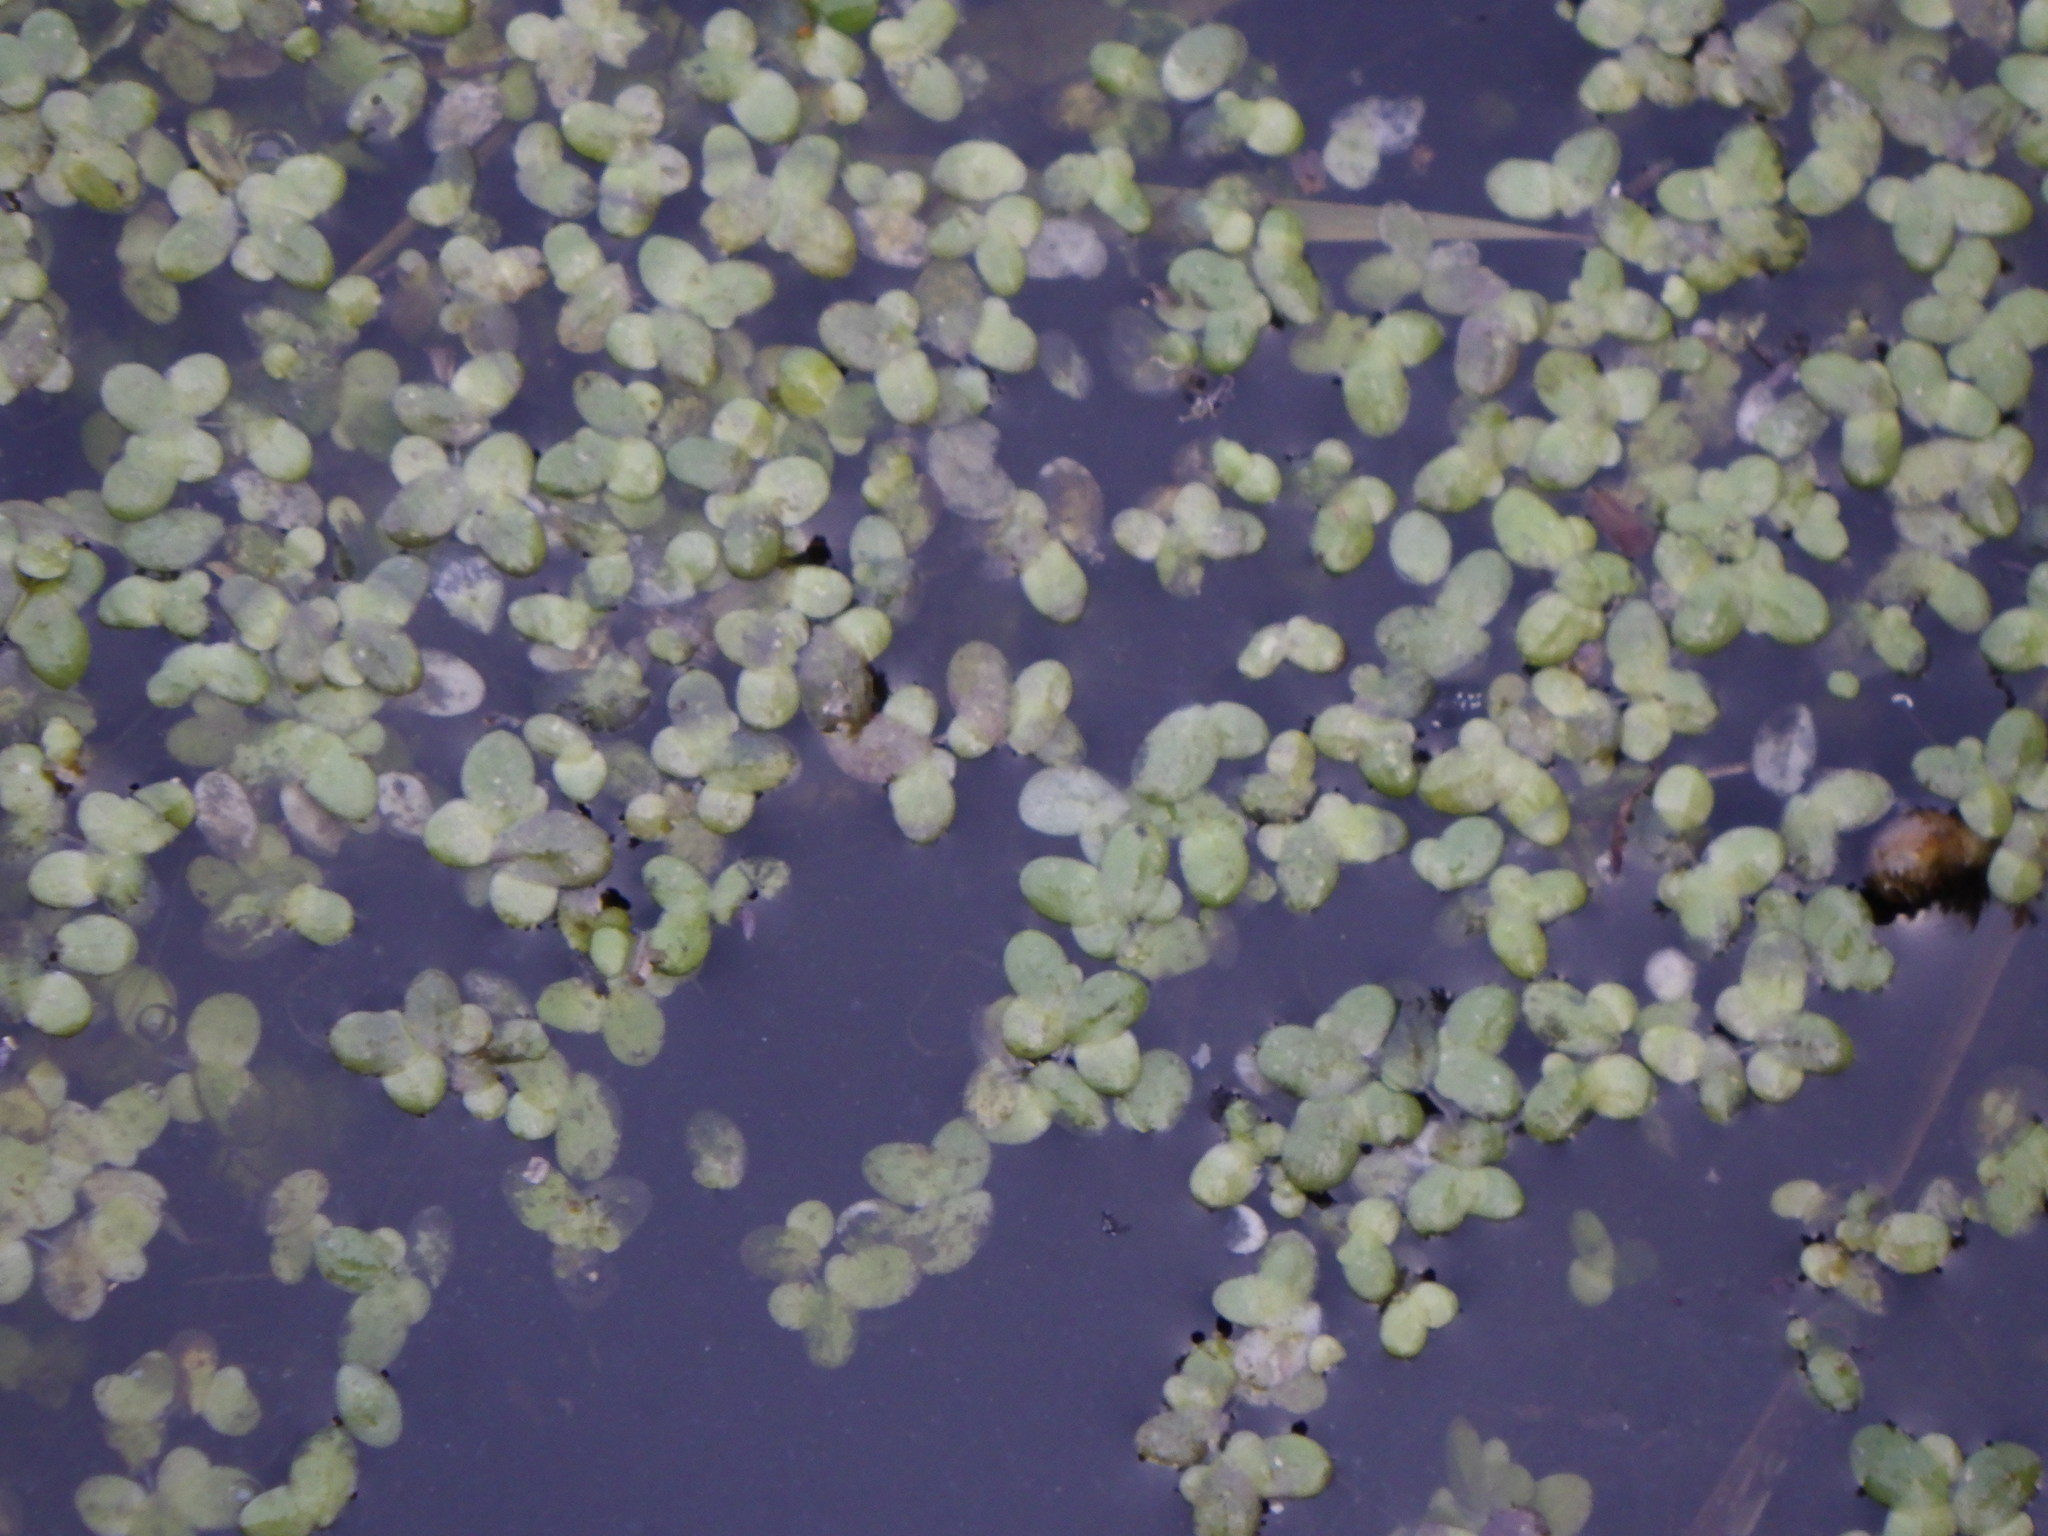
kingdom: Plantae
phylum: Tracheophyta
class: Liliopsida
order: Alismatales
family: Araceae
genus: Lemna
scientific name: Lemna minor
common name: Common duckweed
